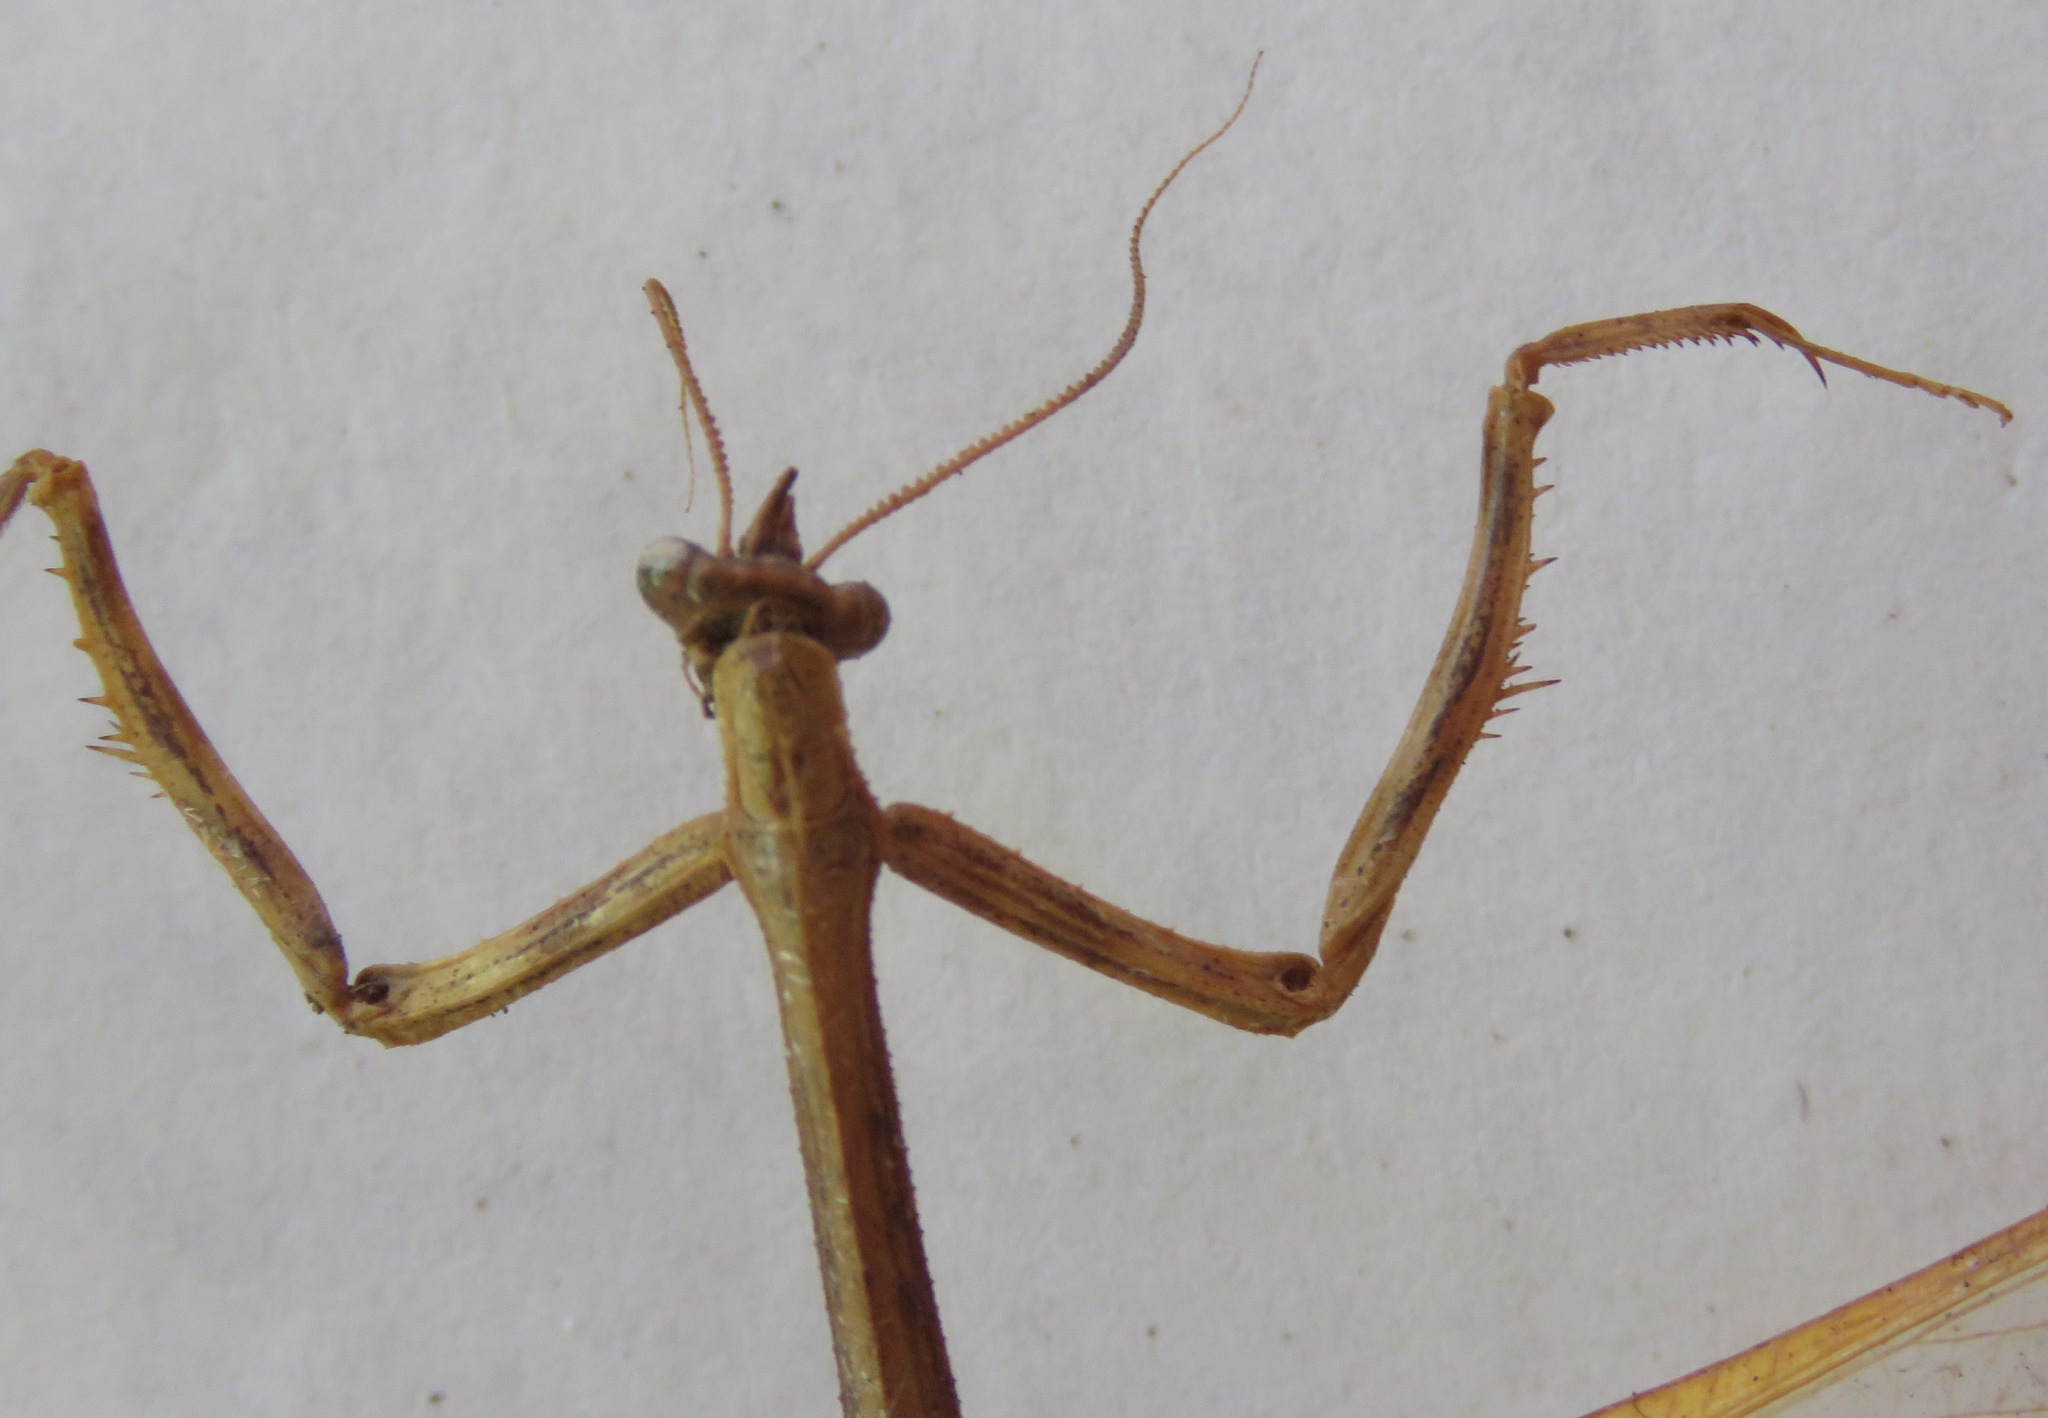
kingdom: Animalia
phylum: Arthropoda
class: Insecta
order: Mantodea
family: Mantidae
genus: Pseudovates
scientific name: Pseudovates chlorophaea
